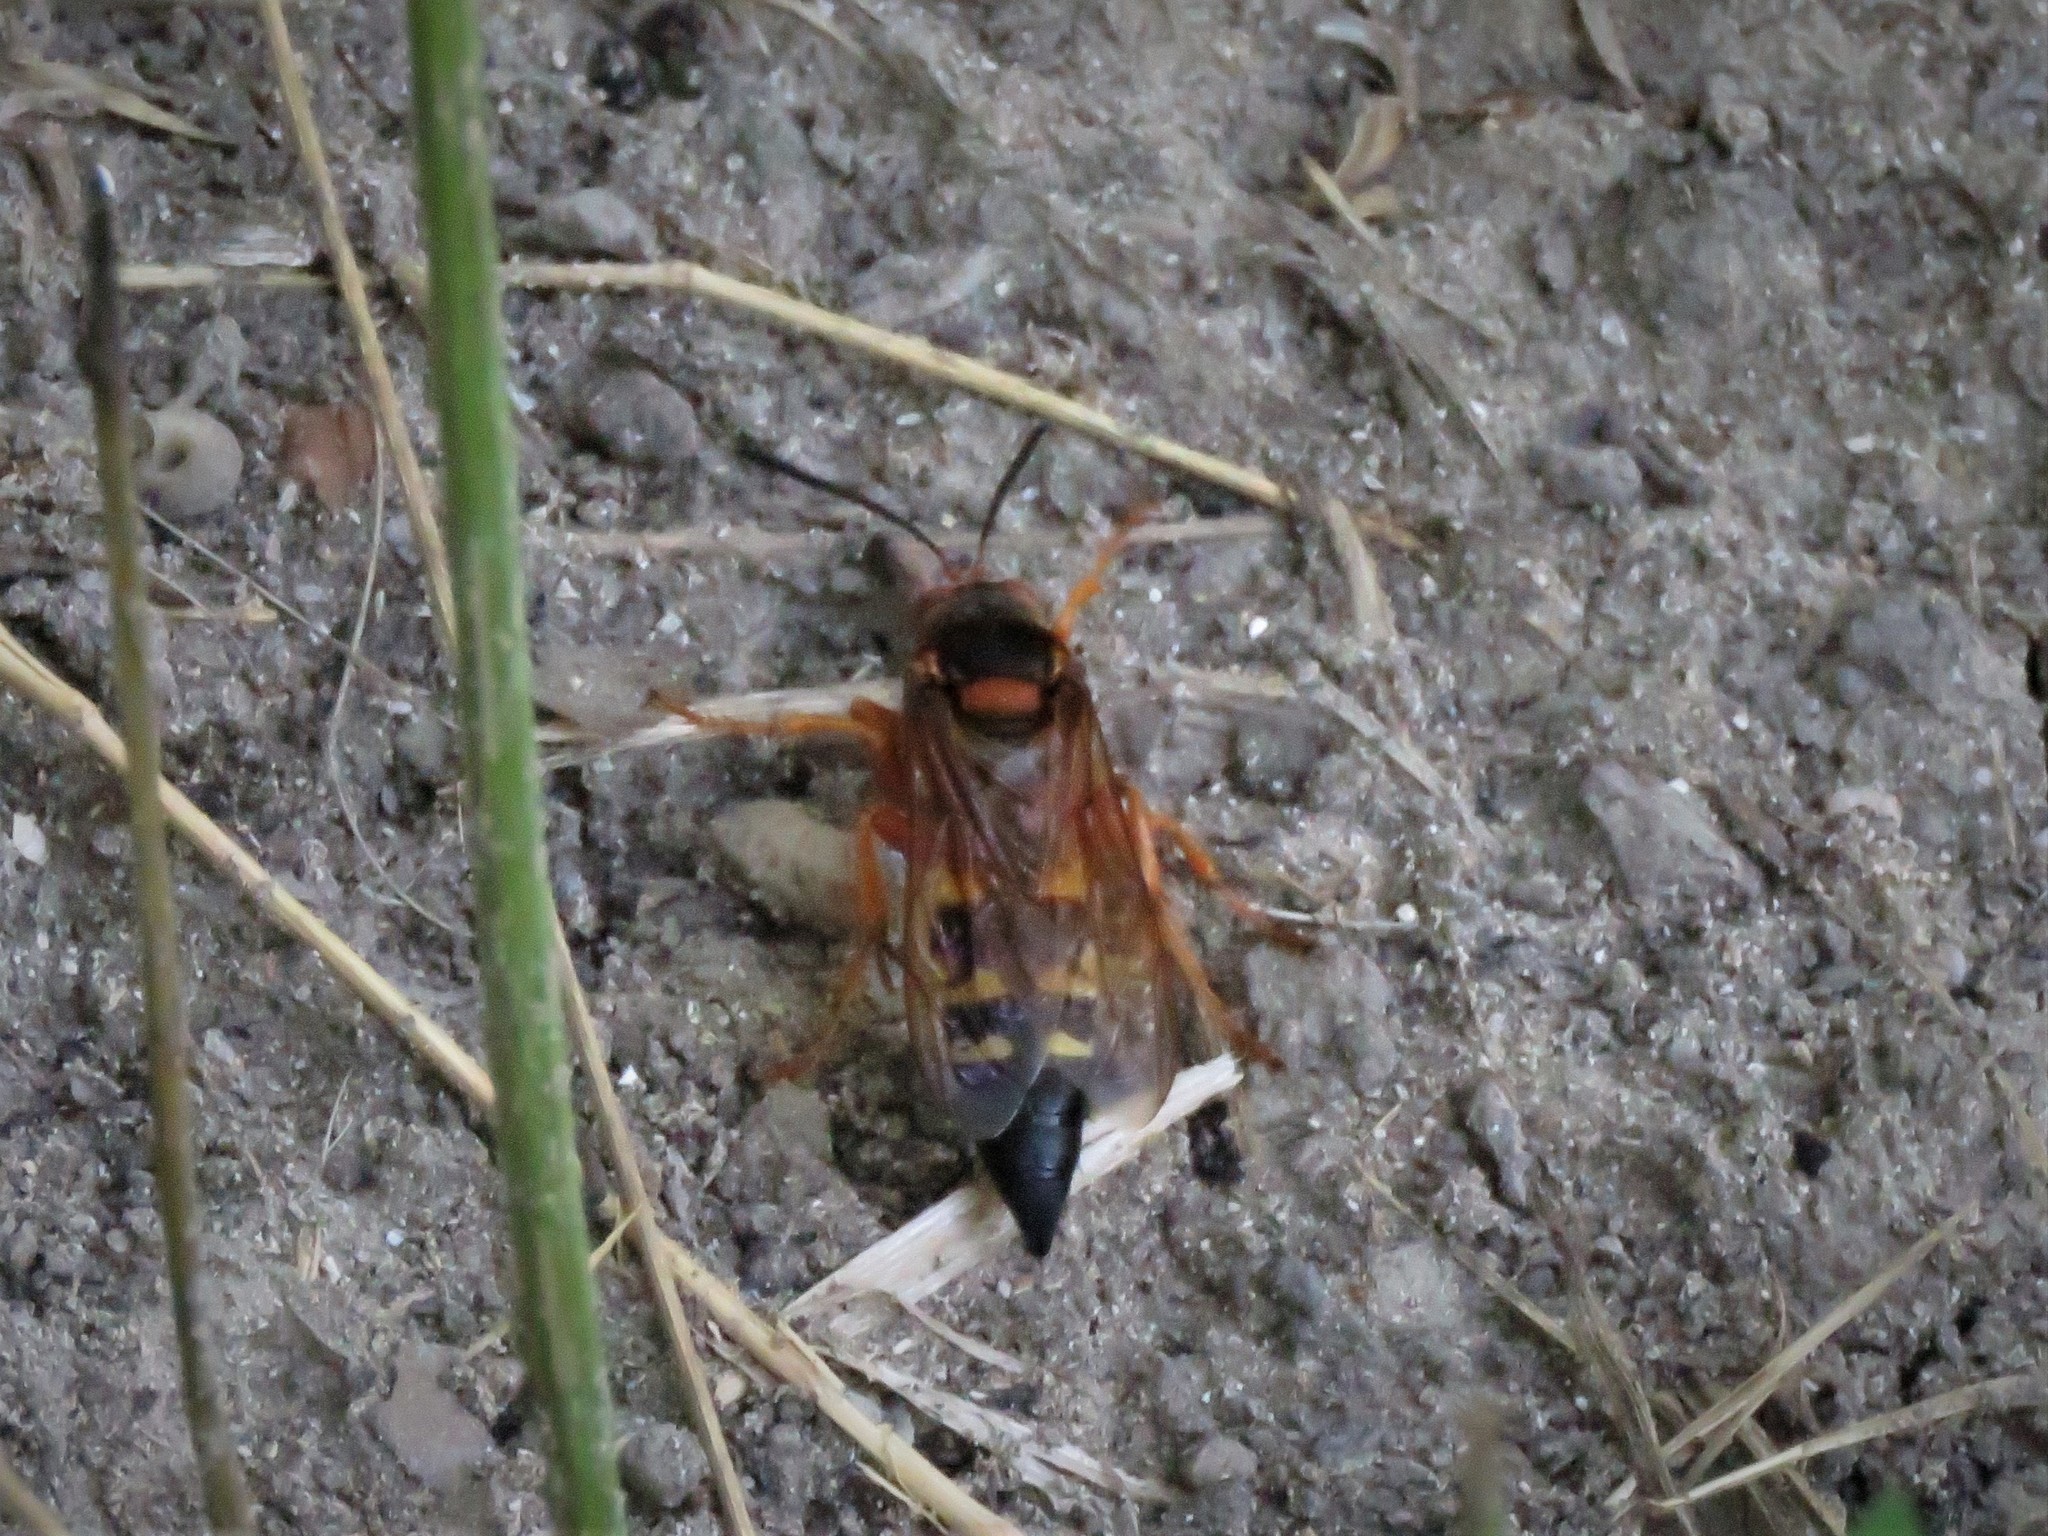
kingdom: Animalia
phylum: Arthropoda
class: Insecta
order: Hymenoptera
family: Crabronidae
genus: Sphecius
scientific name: Sphecius speciosus
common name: Cicada killer
